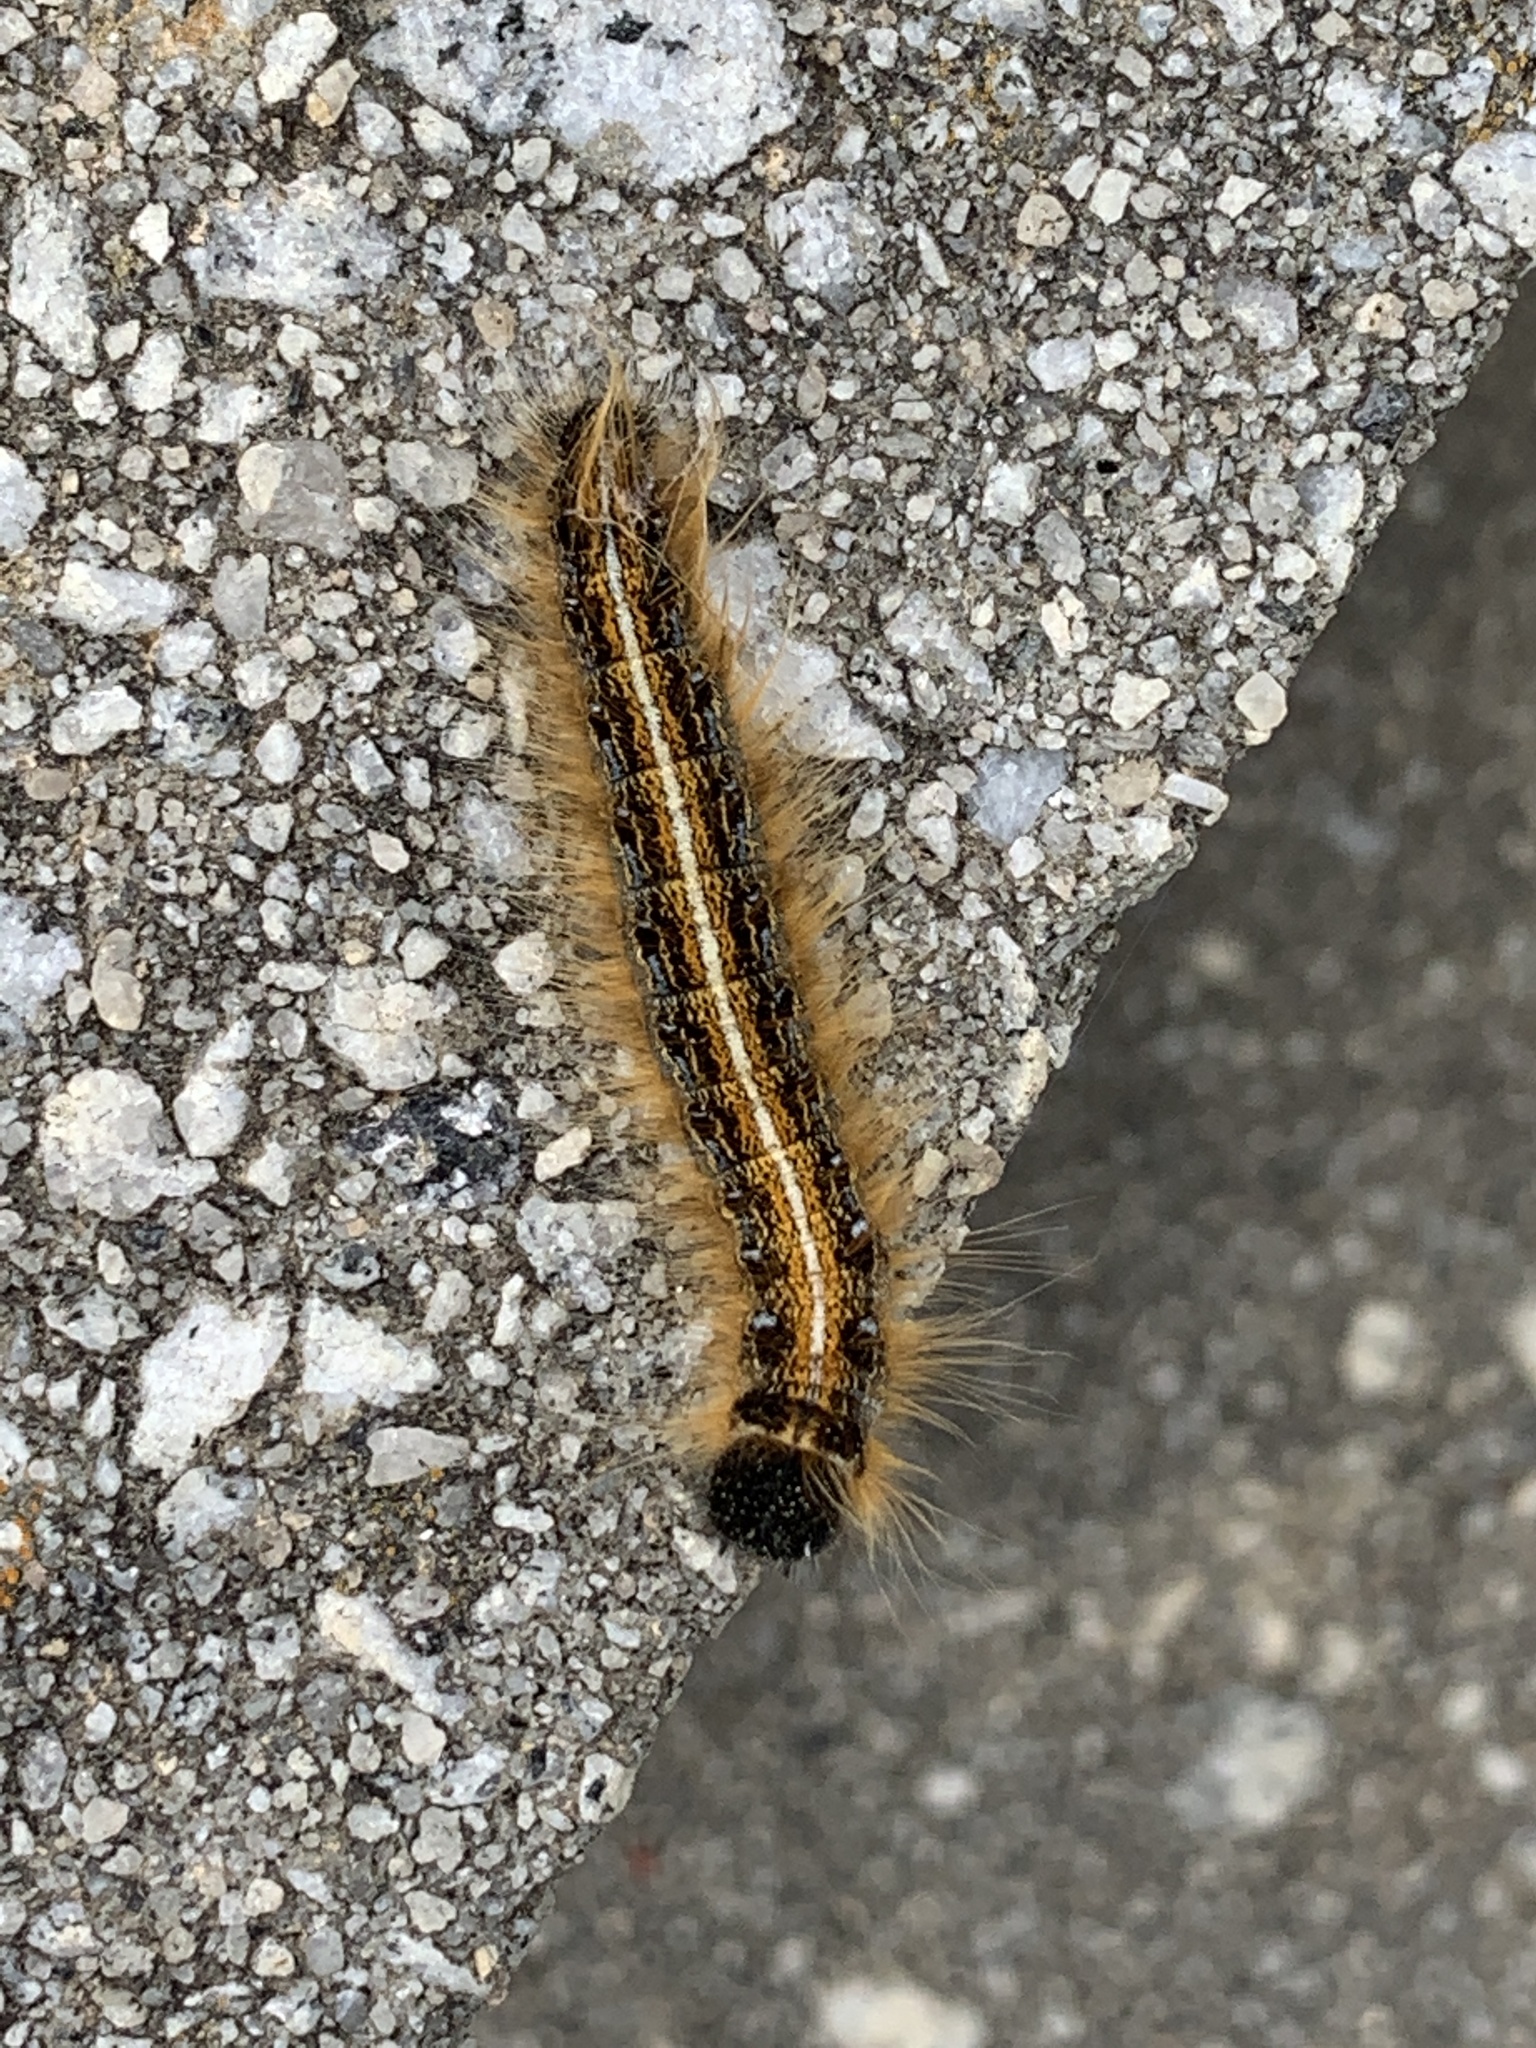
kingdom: Animalia
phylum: Arthropoda
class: Insecta
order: Lepidoptera
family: Lasiocampidae
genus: Malacosoma
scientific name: Malacosoma americana
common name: Eastern tent caterpillar moth
